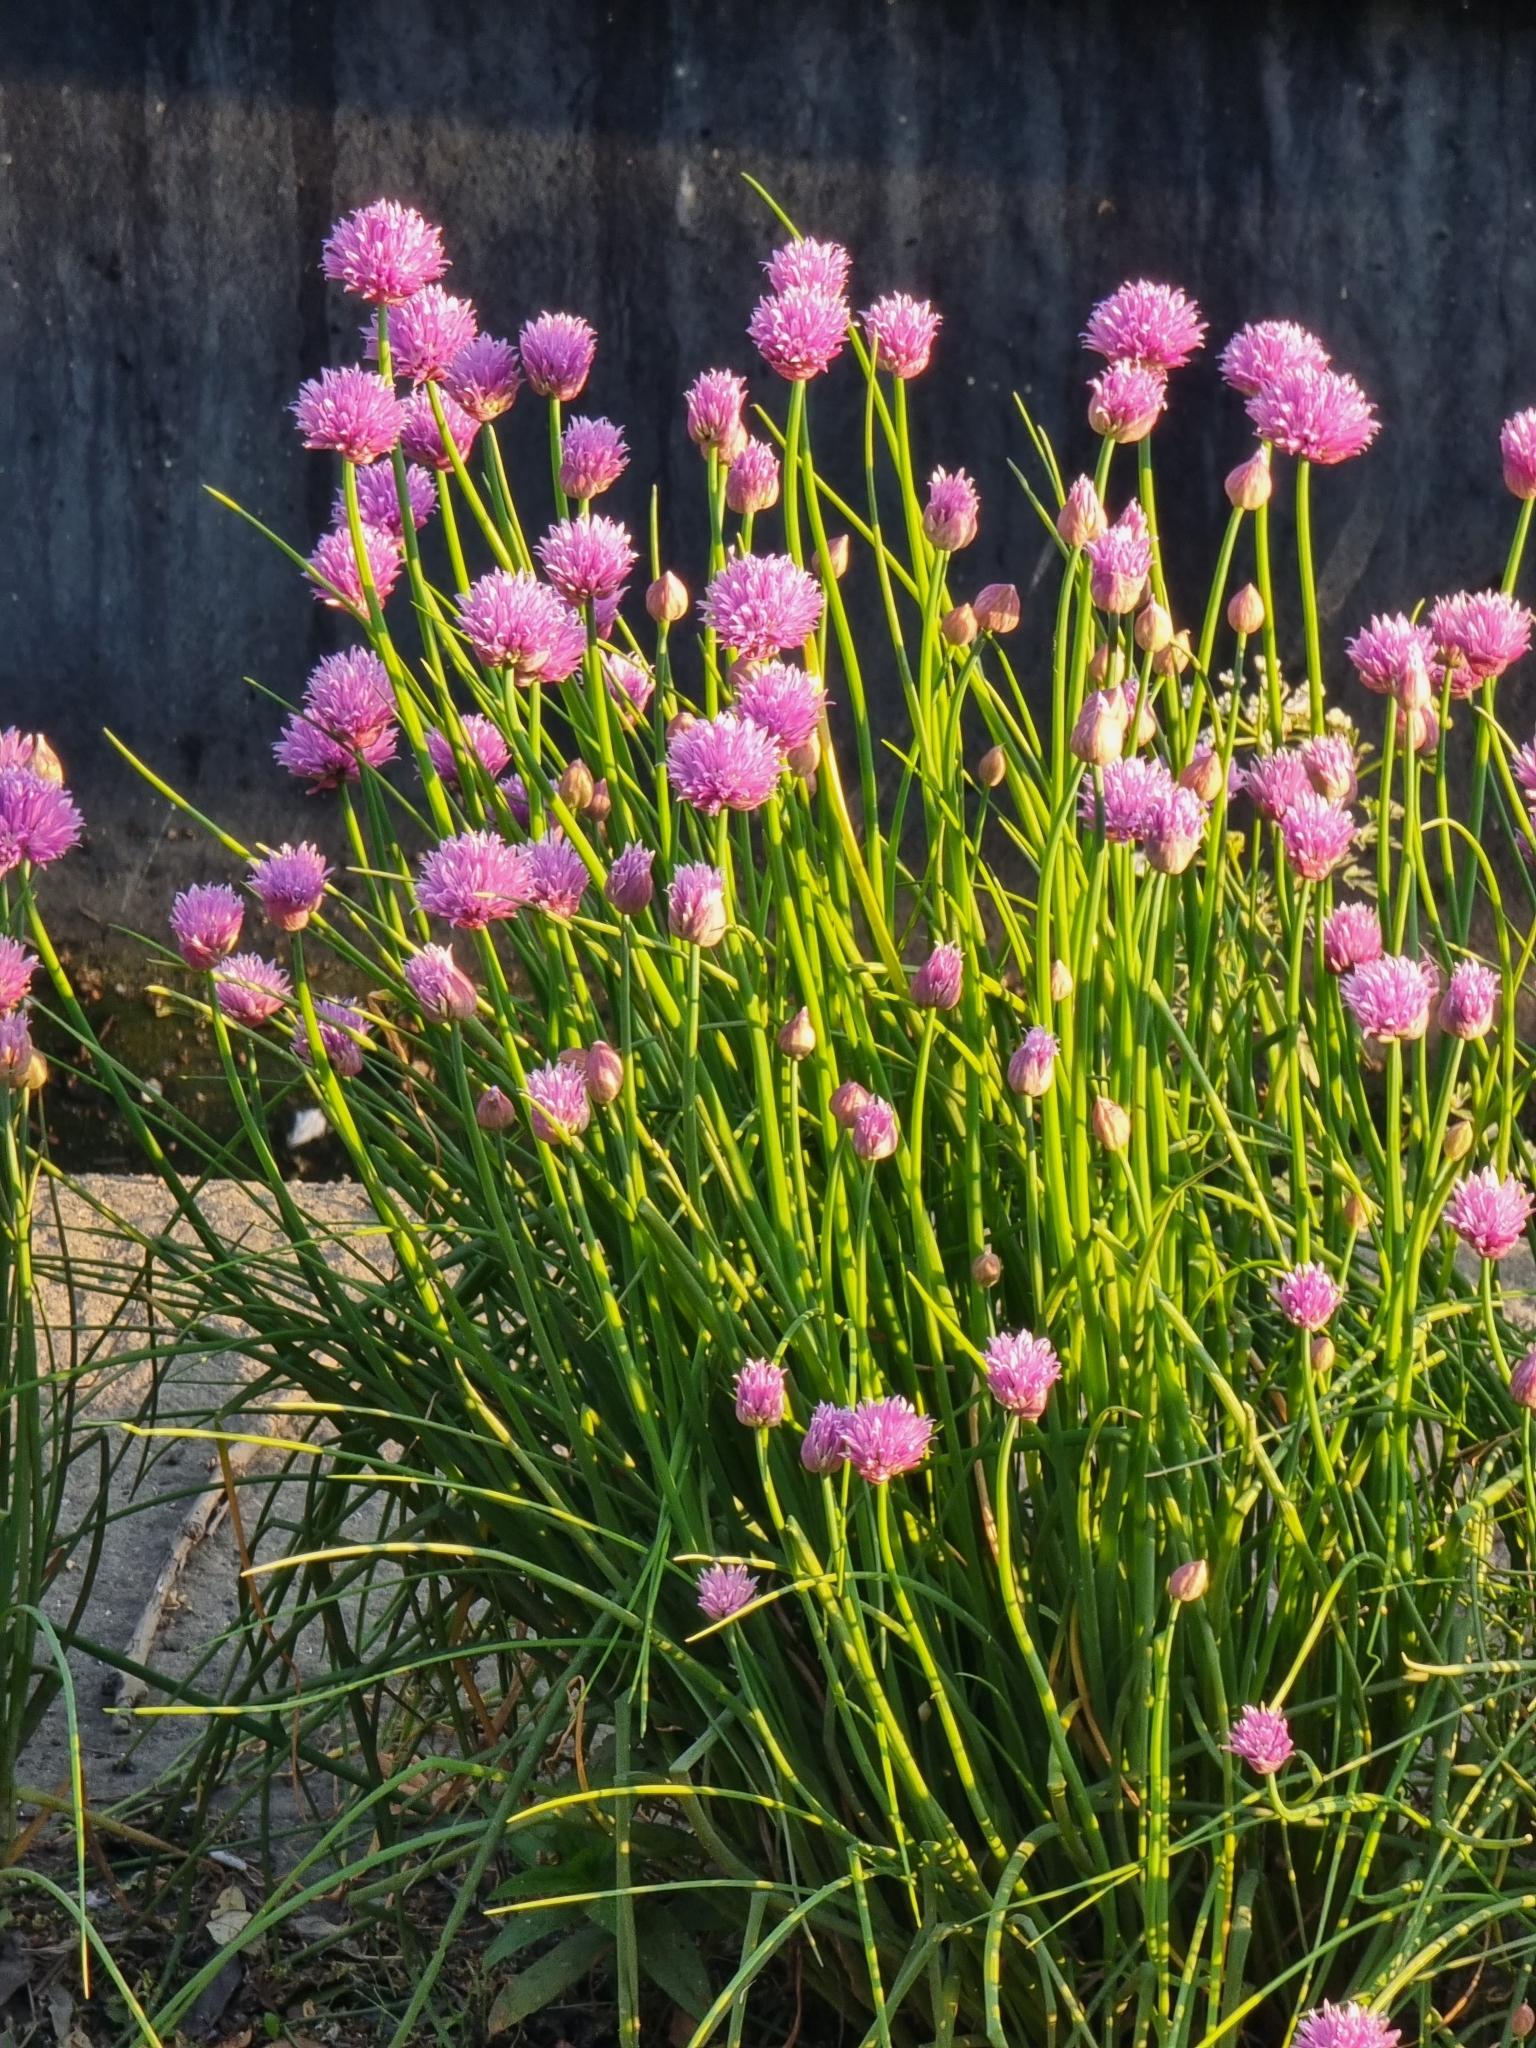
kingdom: Plantae
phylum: Tracheophyta
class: Liliopsida
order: Asparagales
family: Amaryllidaceae
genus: Allium
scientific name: Allium schoenoprasum
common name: Chives
